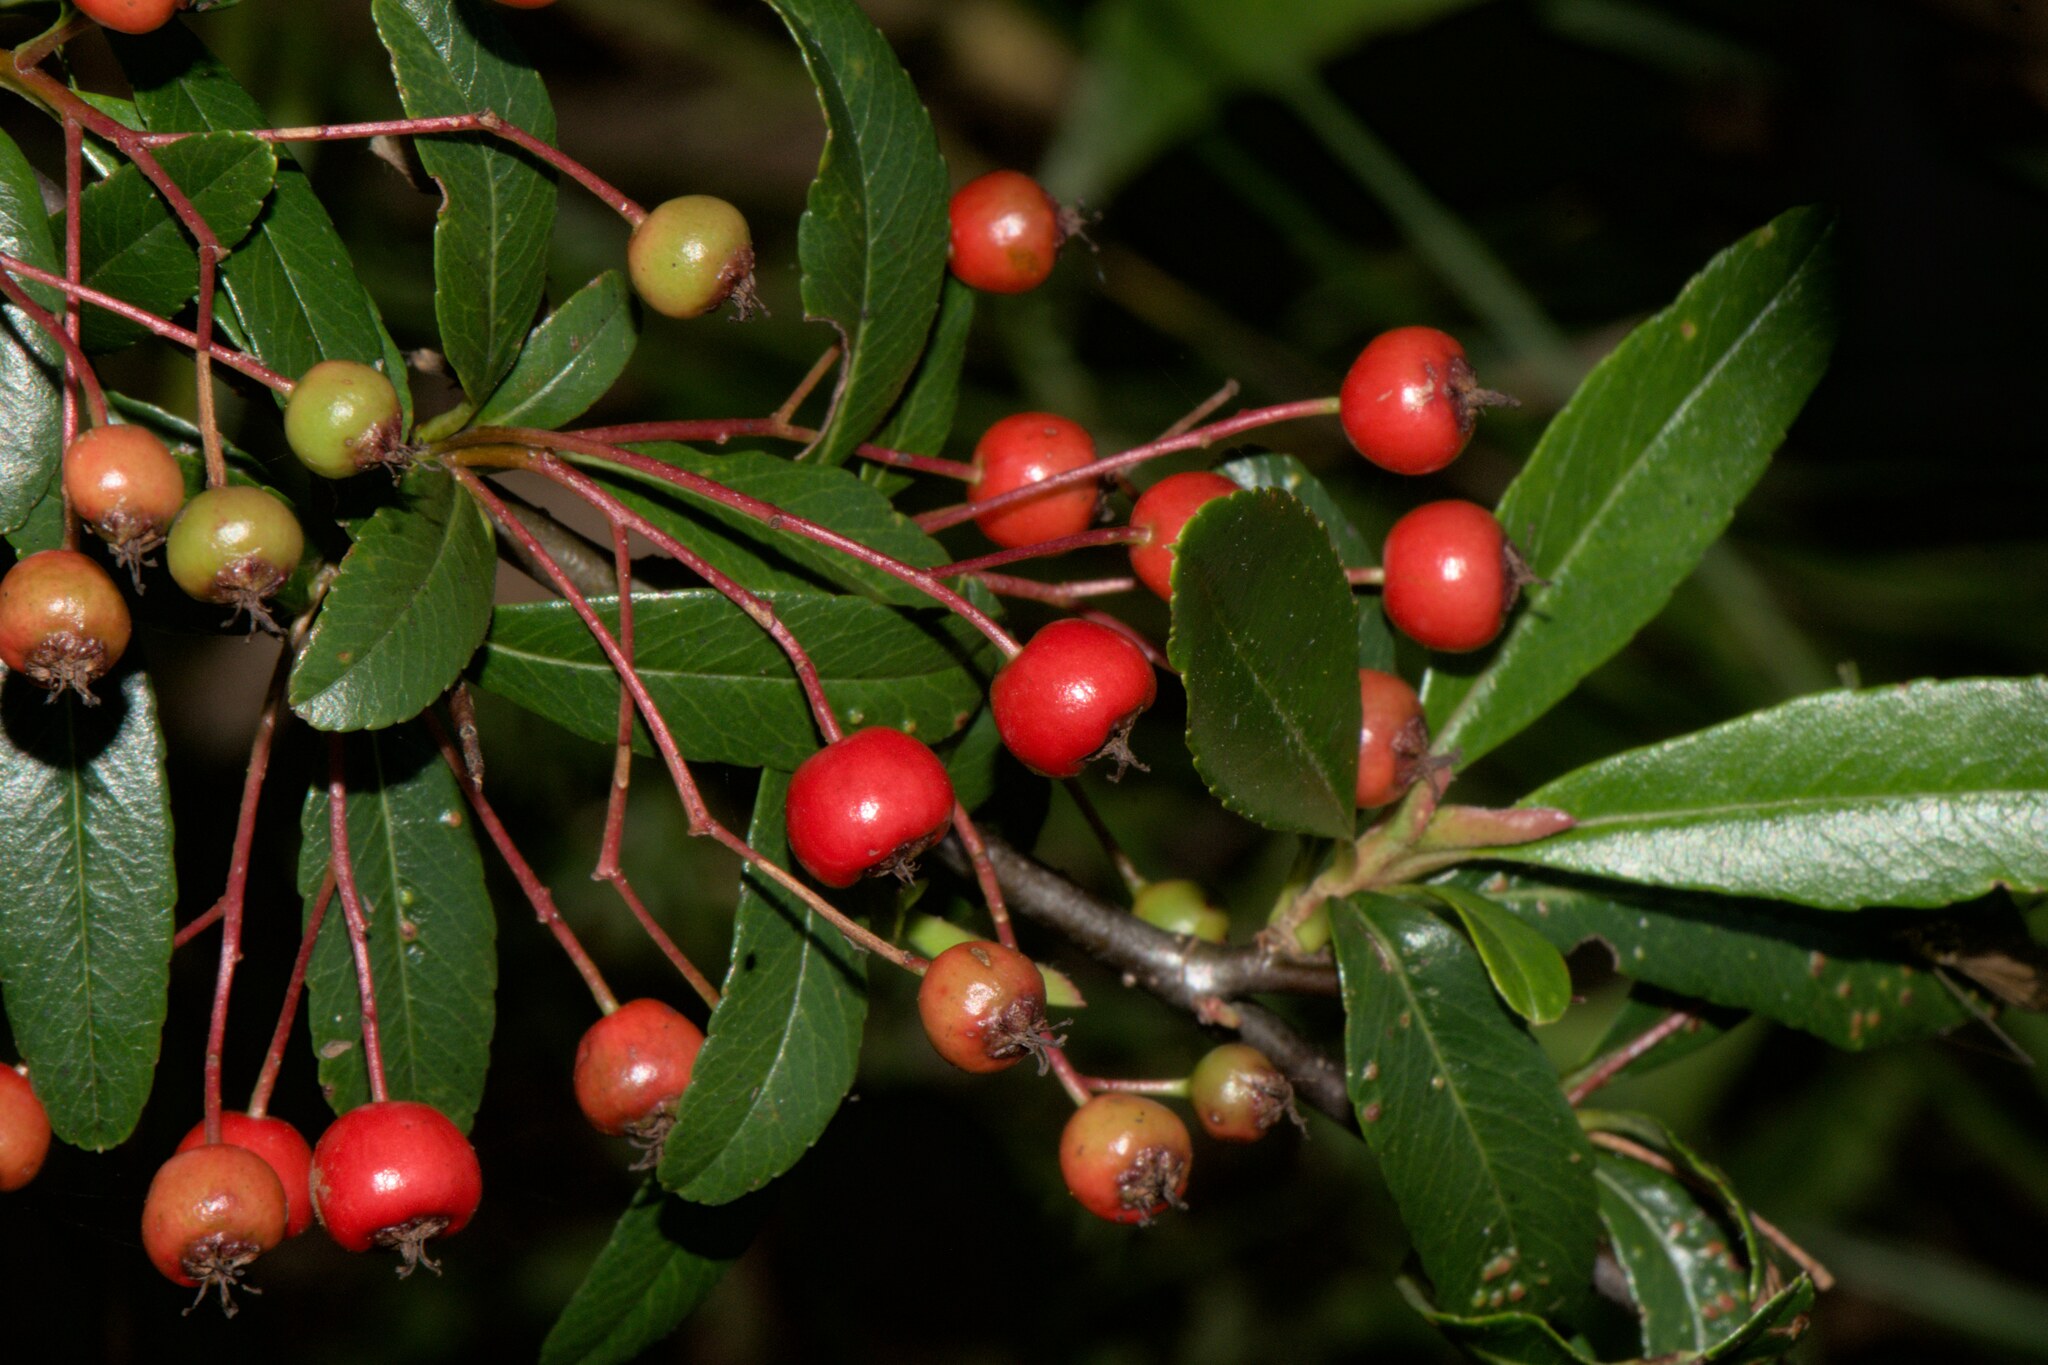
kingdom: Plantae
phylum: Tracheophyta
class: Magnoliopsida
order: Rosales
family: Rosaceae
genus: Pyracantha
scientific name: Pyracantha crenulata
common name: Nepalese firethorn
